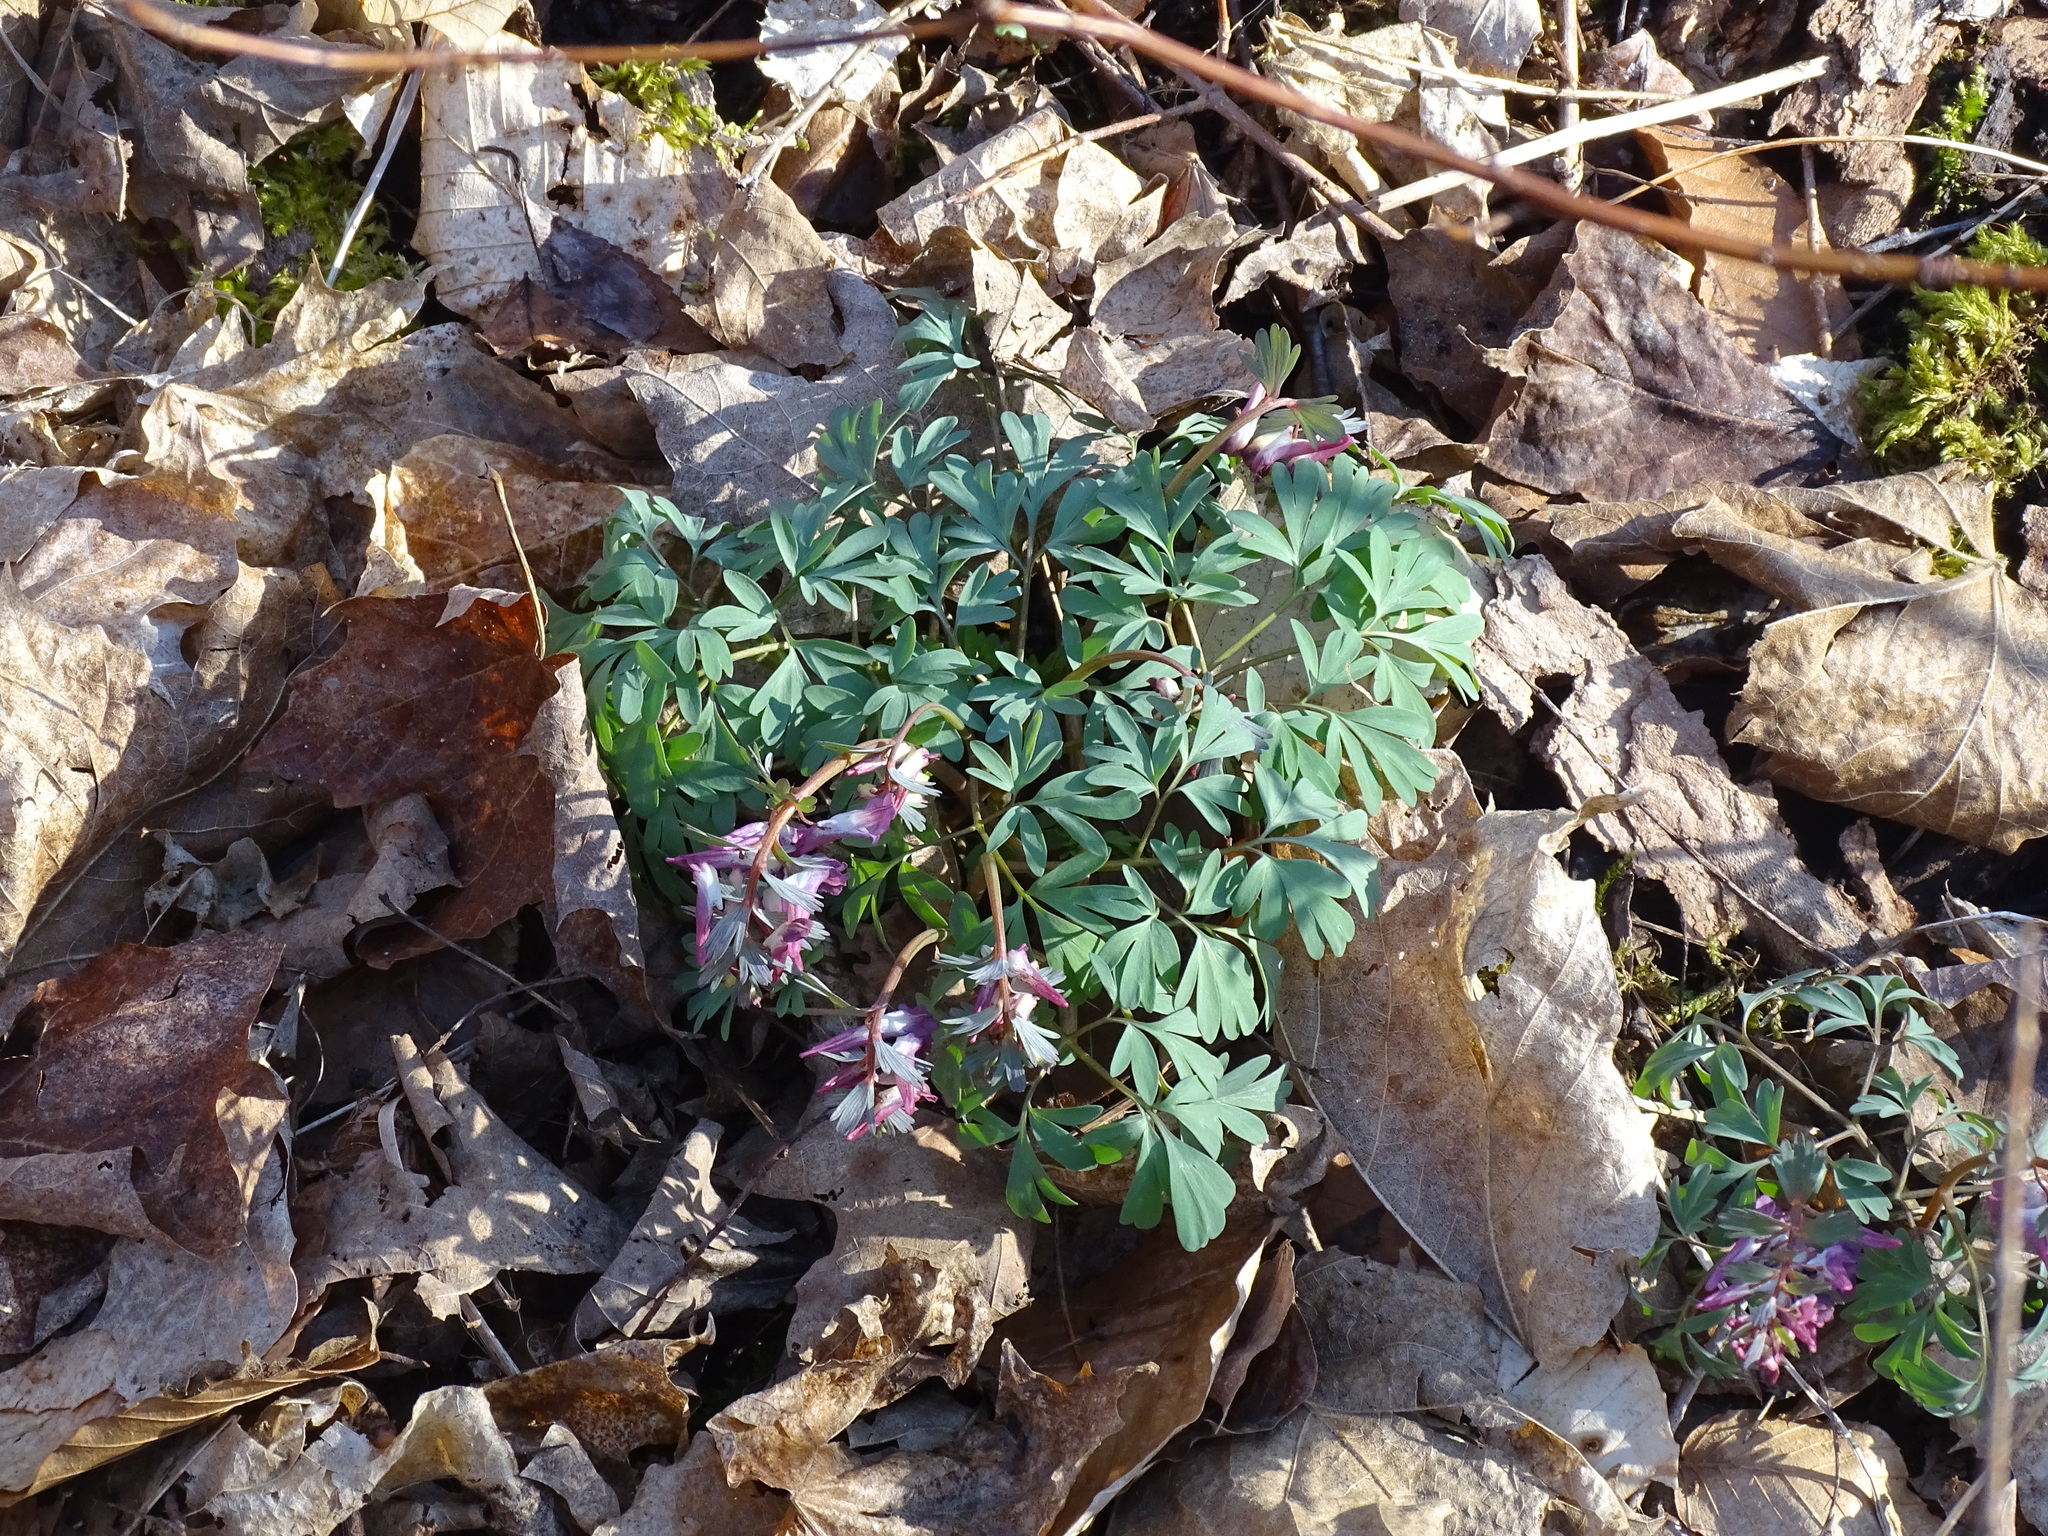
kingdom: Plantae
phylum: Tracheophyta
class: Magnoliopsida
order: Ranunculales
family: Papaveraceae
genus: Corydalis
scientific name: Corydalis solida
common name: Bird-in-a-bush
